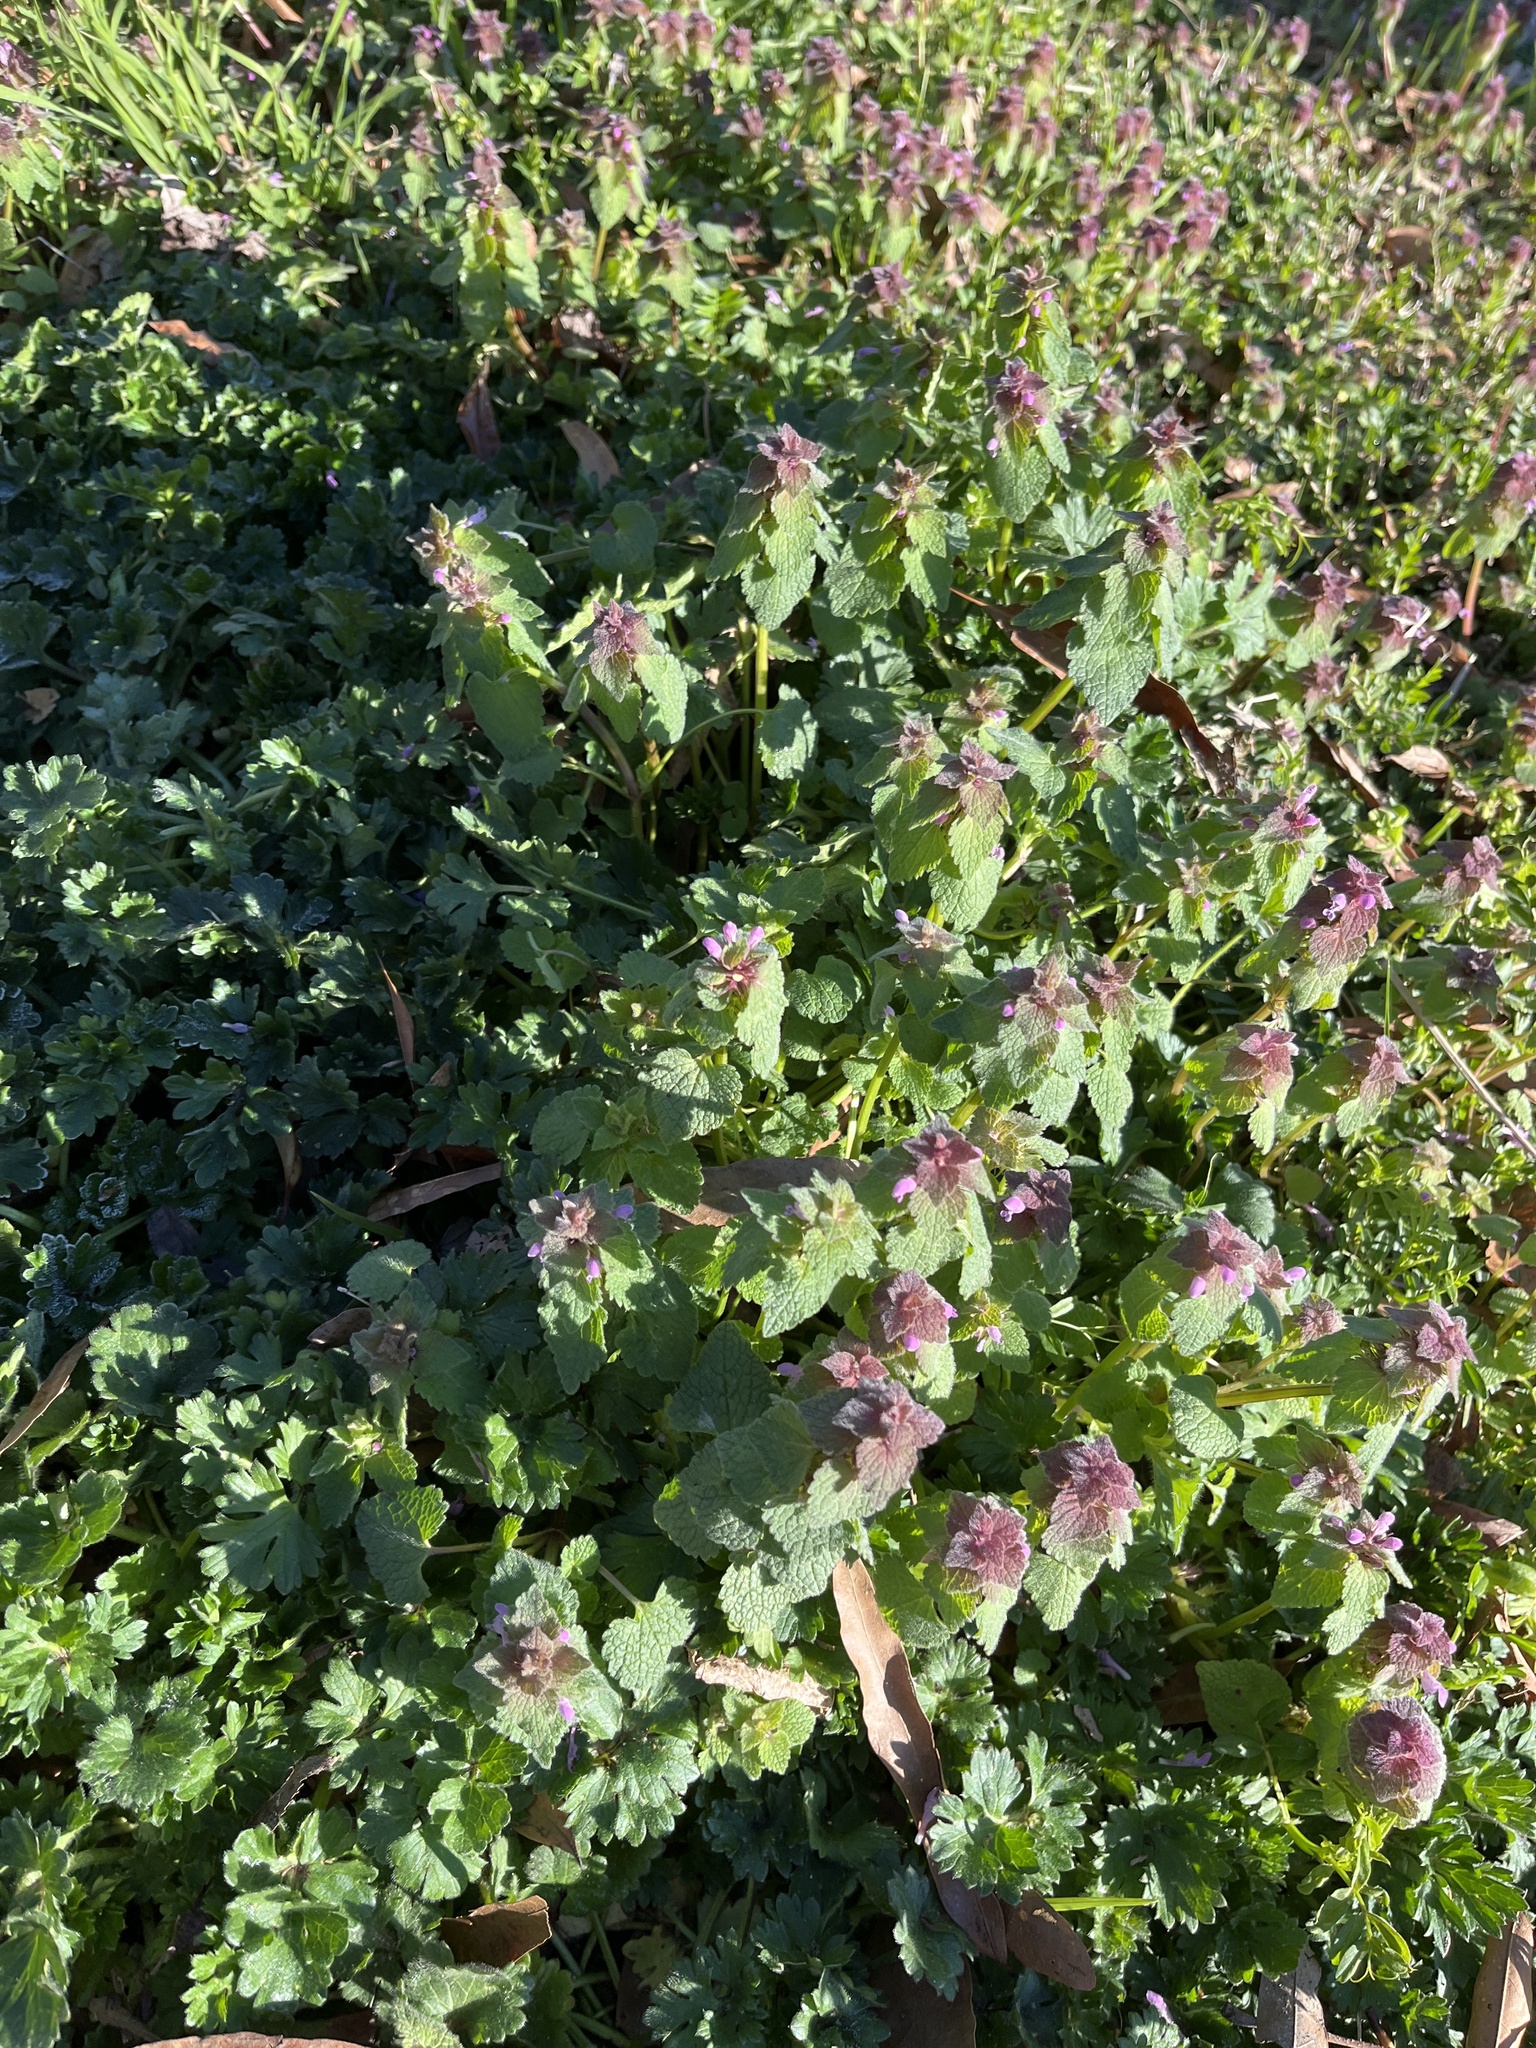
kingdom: Plantae
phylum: Tracheophyta
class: Magnoliopsida
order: Lamiales
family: Lamiaceae
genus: Lamium
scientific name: Lamium purpureum
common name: Red dead-nettle
